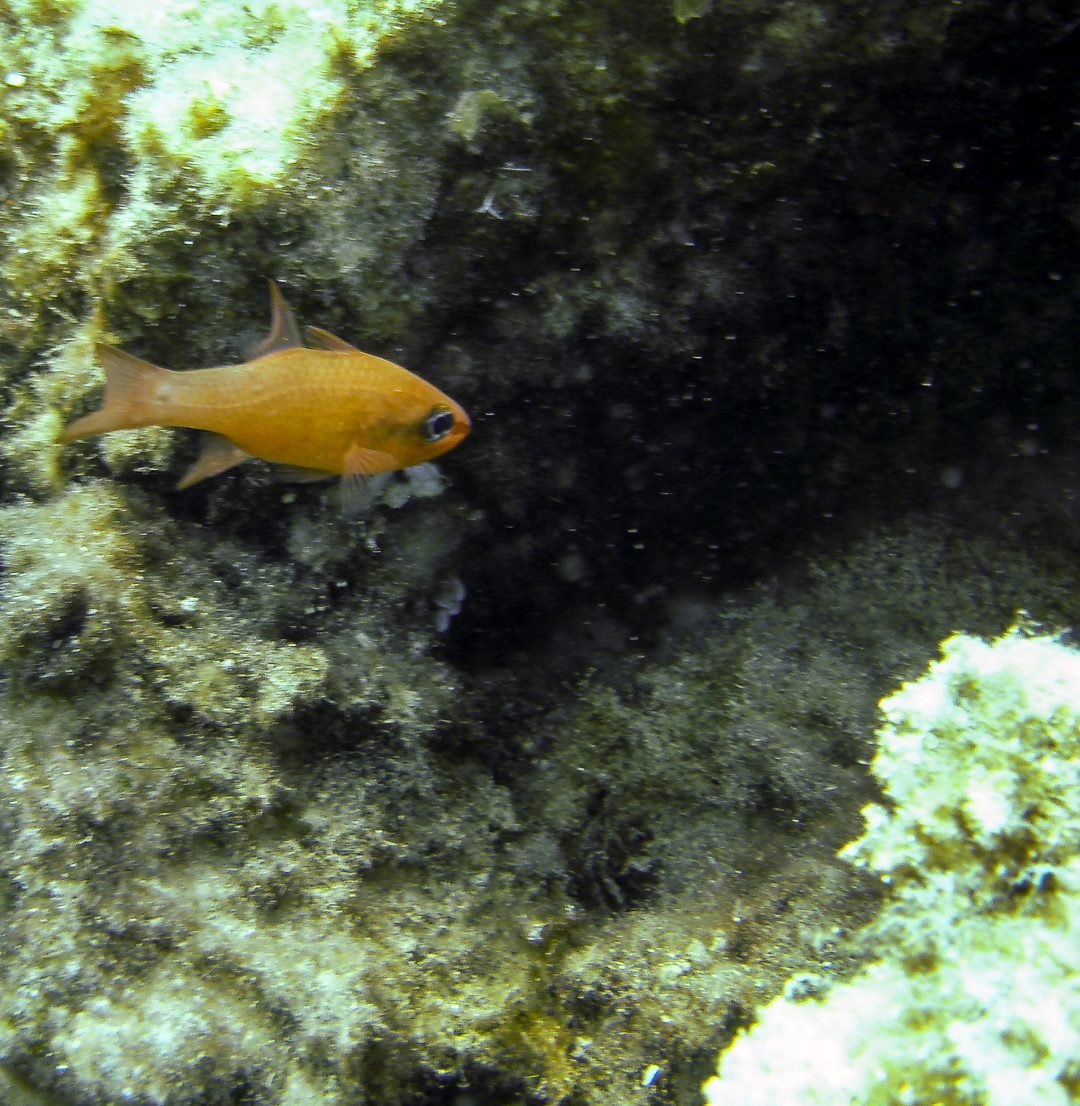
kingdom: Animalia
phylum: Chordata
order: Perciformes
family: Apogonidae
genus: Apogon
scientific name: Apogon imberbis
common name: Cardinal fish
